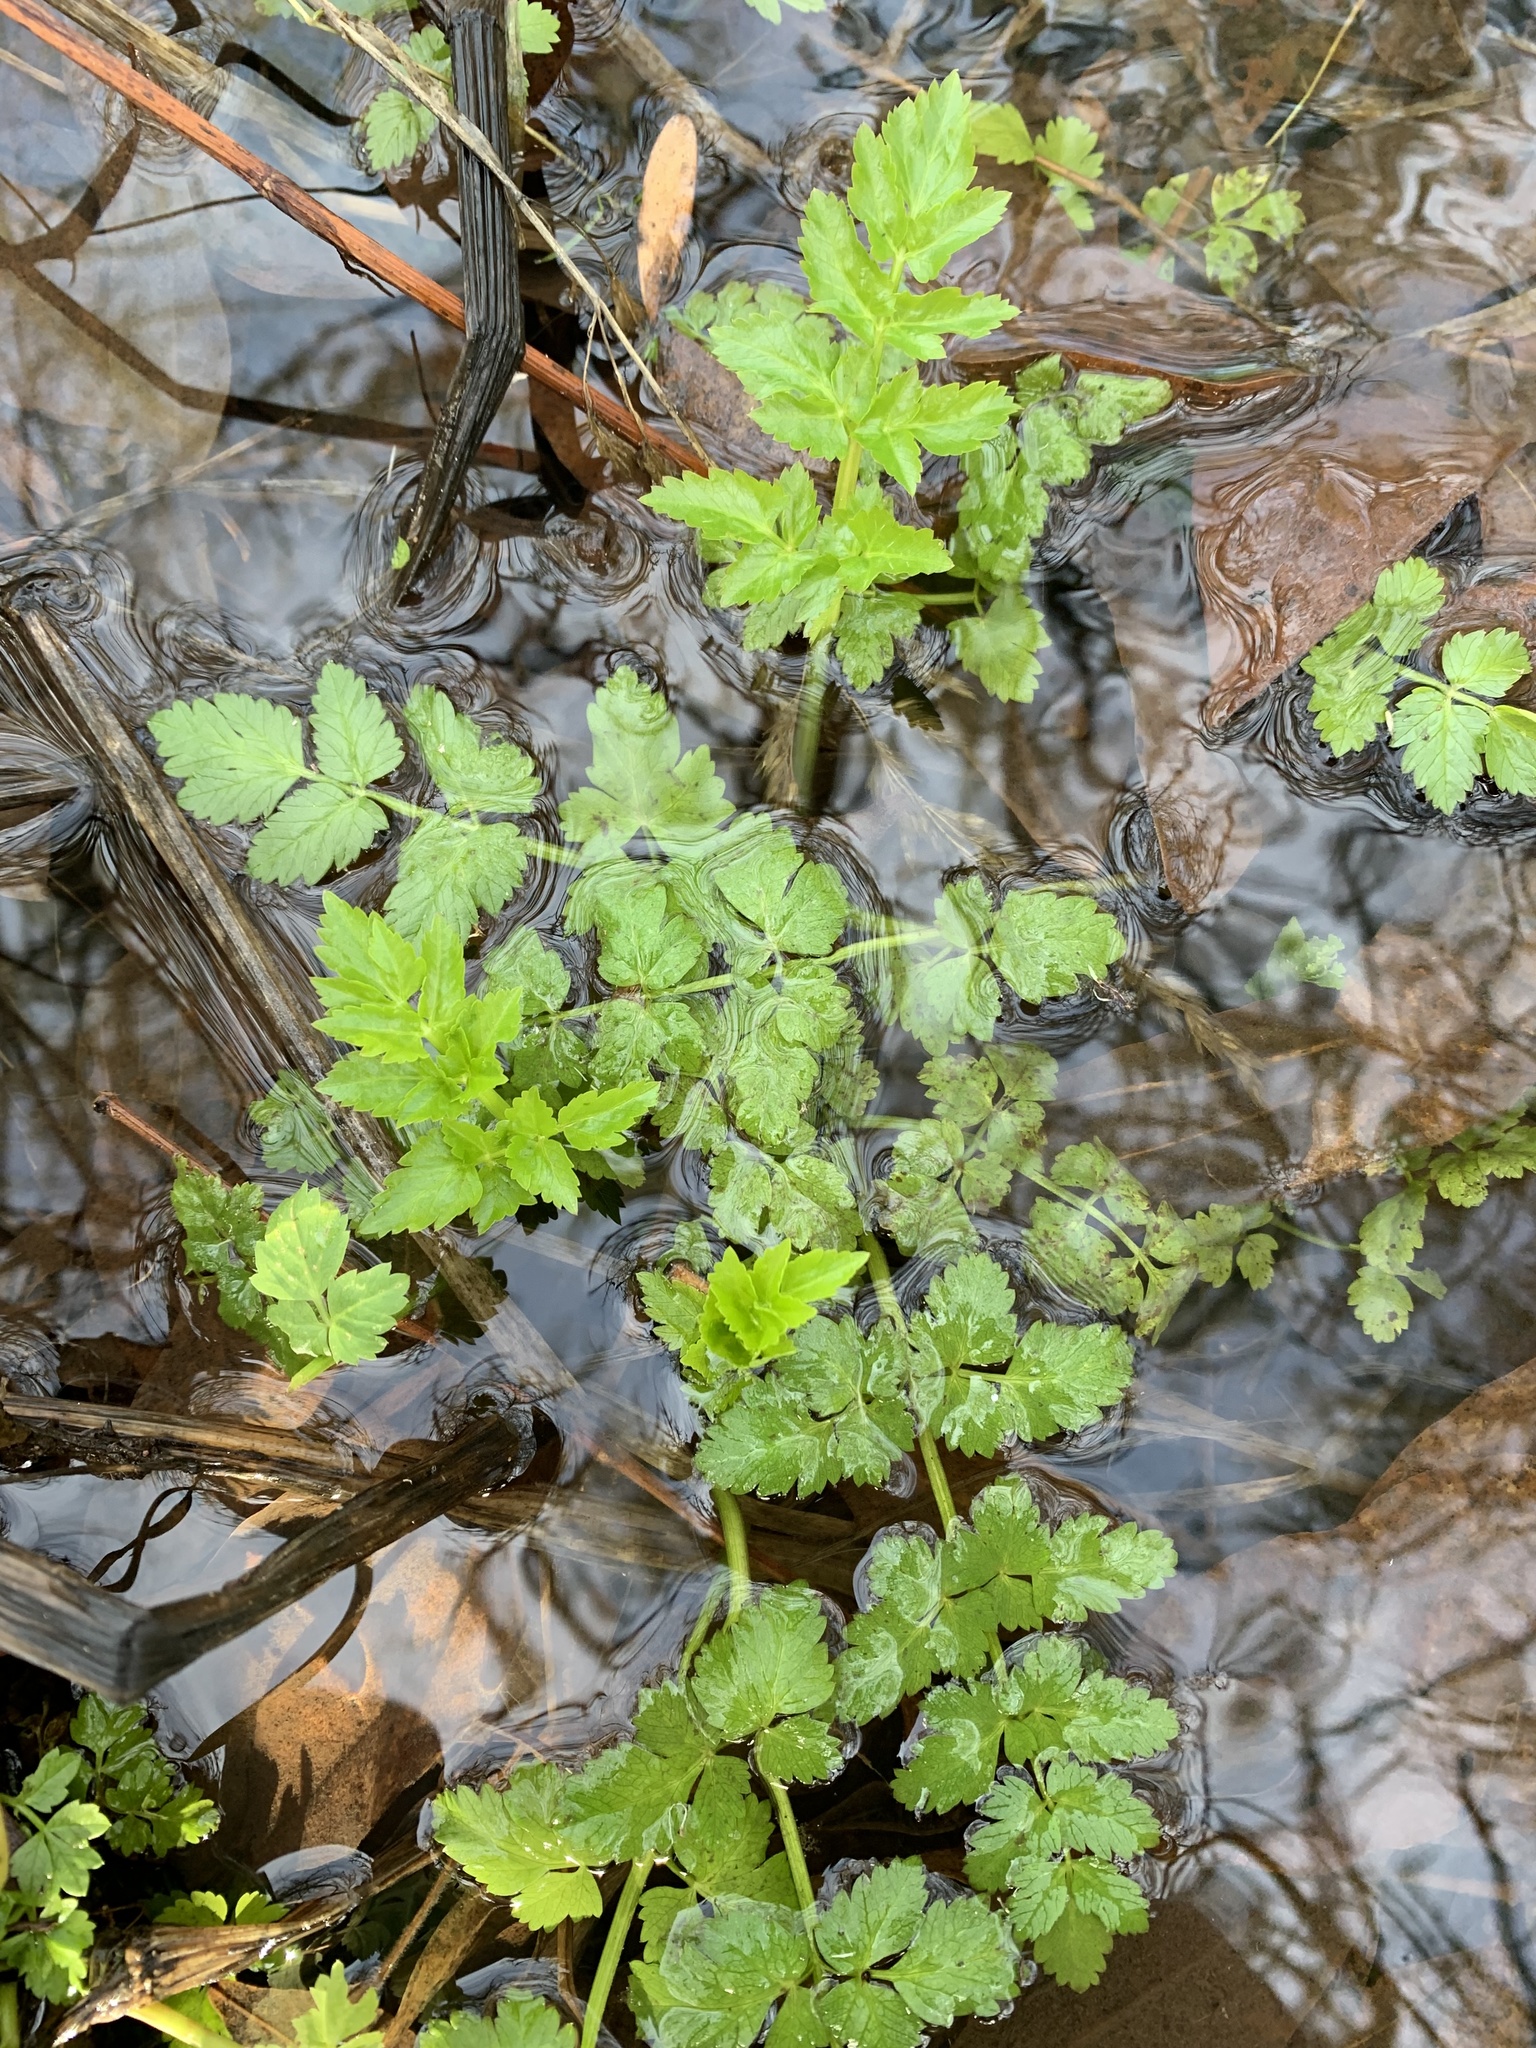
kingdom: Plantae
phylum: Tracheophyta
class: Magnoliopsida
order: Apiales
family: Apiaceae
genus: Oenanthe
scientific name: Oenanthe sarmentosa
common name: American water-parsley
